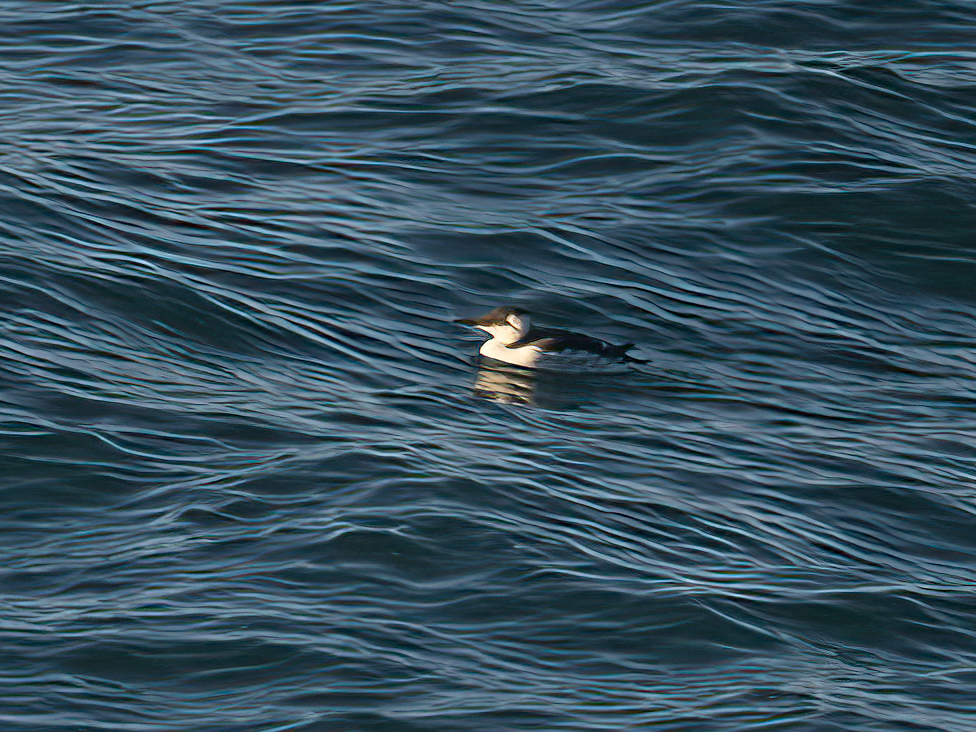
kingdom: Animalia
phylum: Chordata
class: Aves
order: Charadriiformes
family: Alcidae
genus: Uria
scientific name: Uria aalge
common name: Common murre
